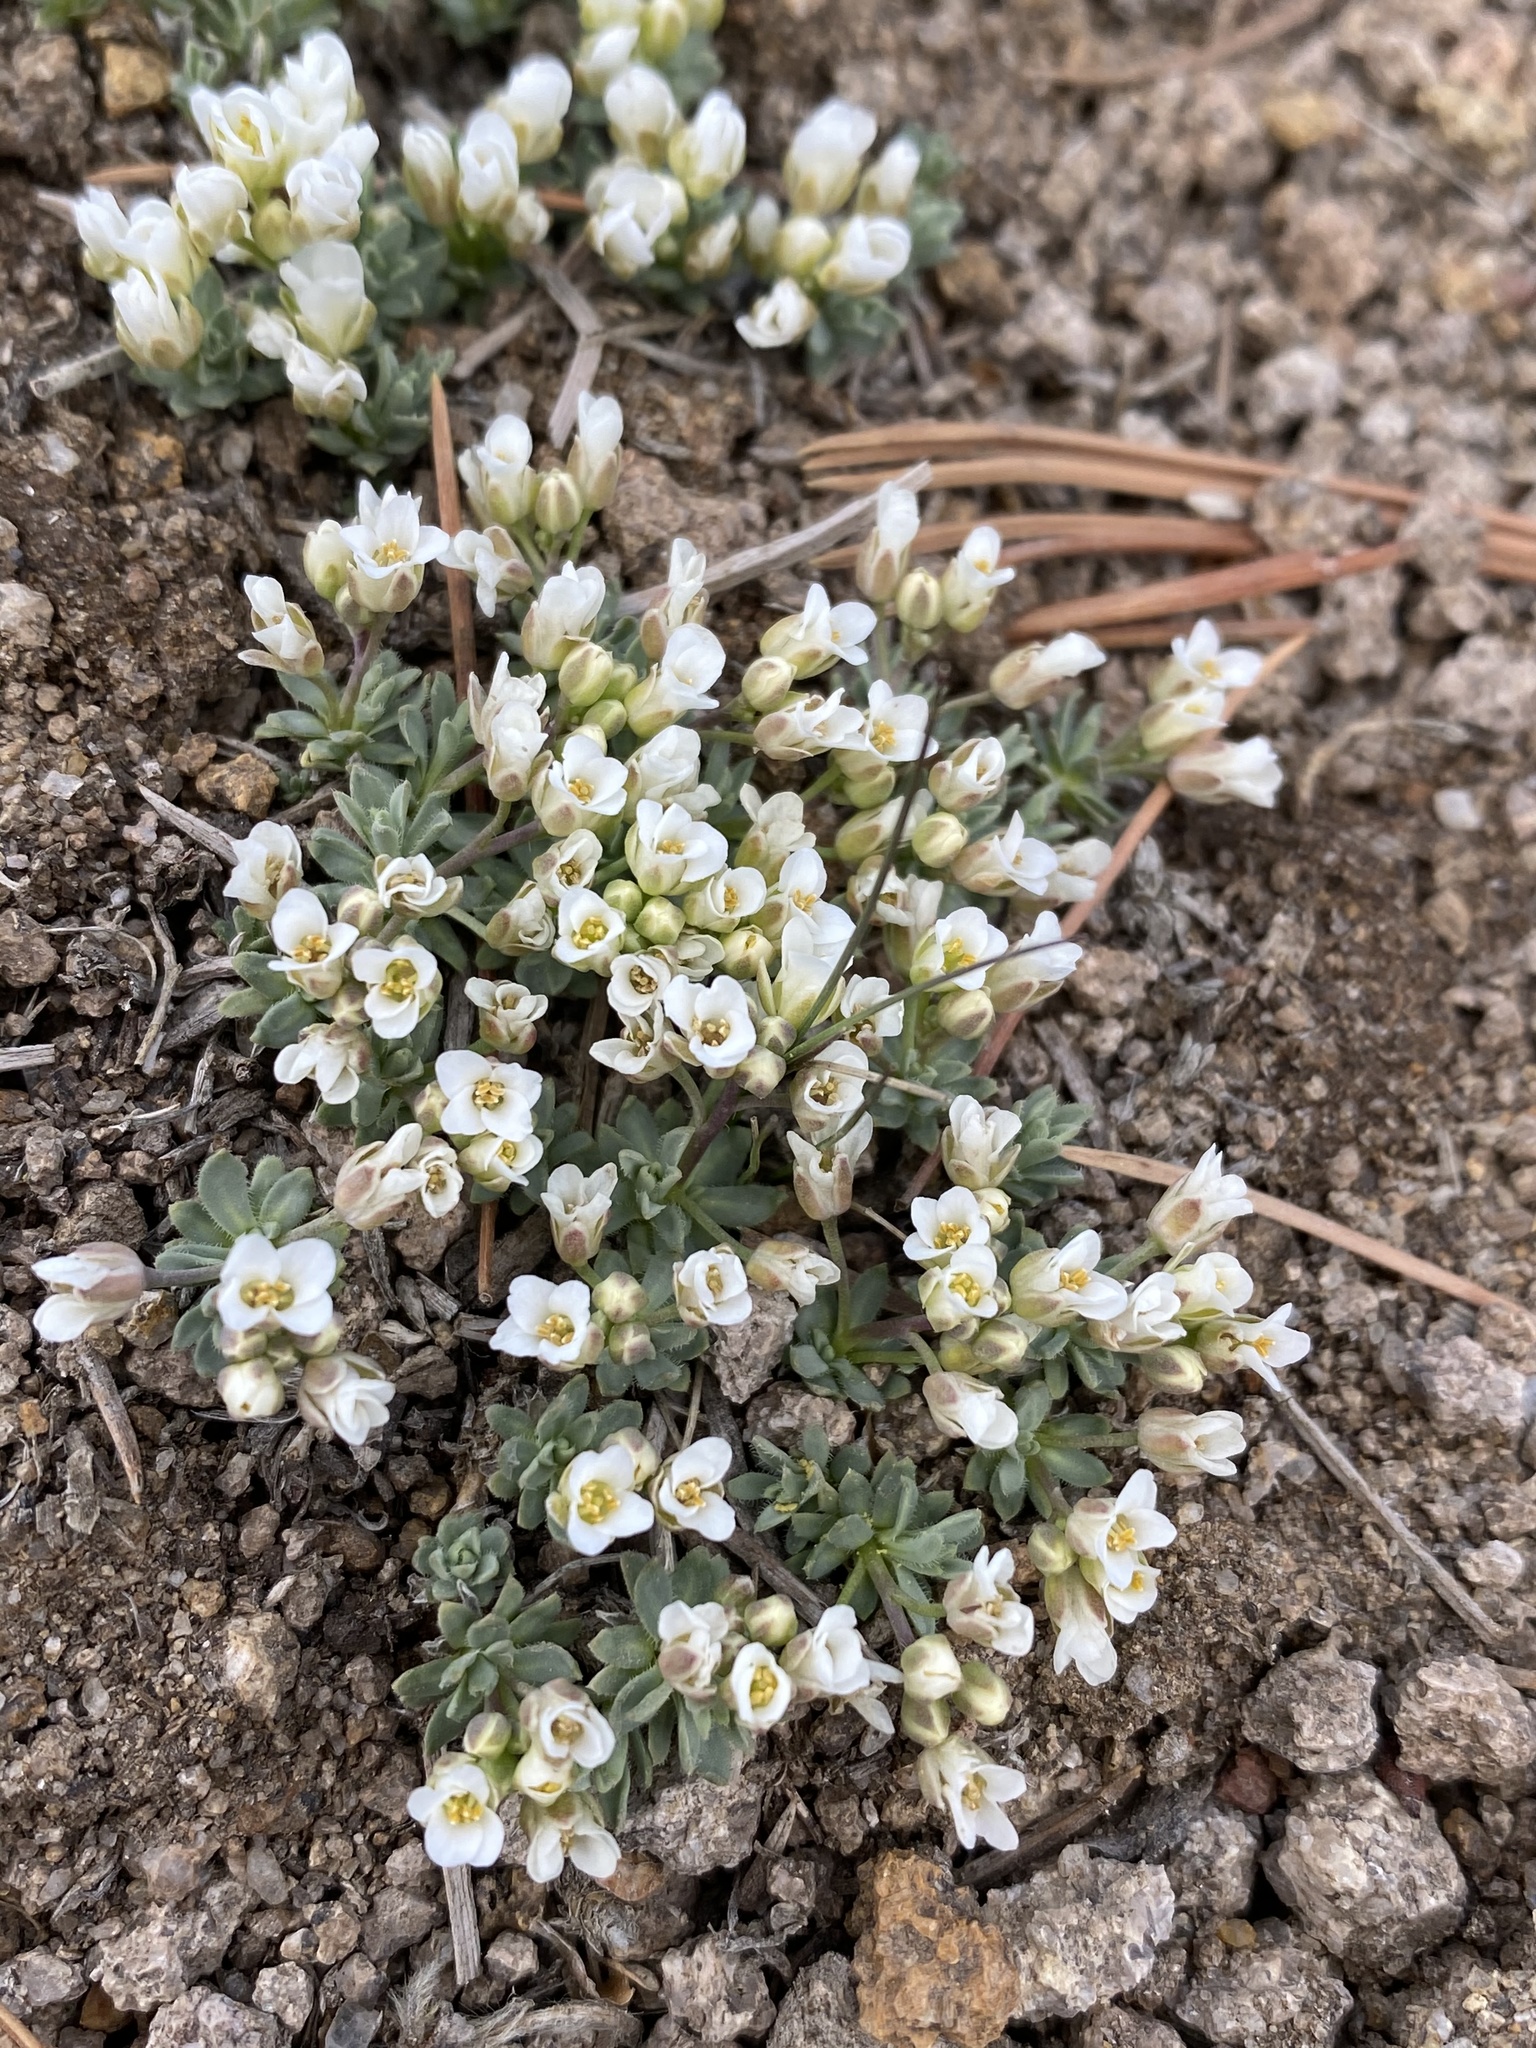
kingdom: Plantae
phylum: Tracheophyta
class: Magnoliopsida
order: Brassicales
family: Brassicaceae
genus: Cusickiella
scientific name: Cusickiella douglasii
